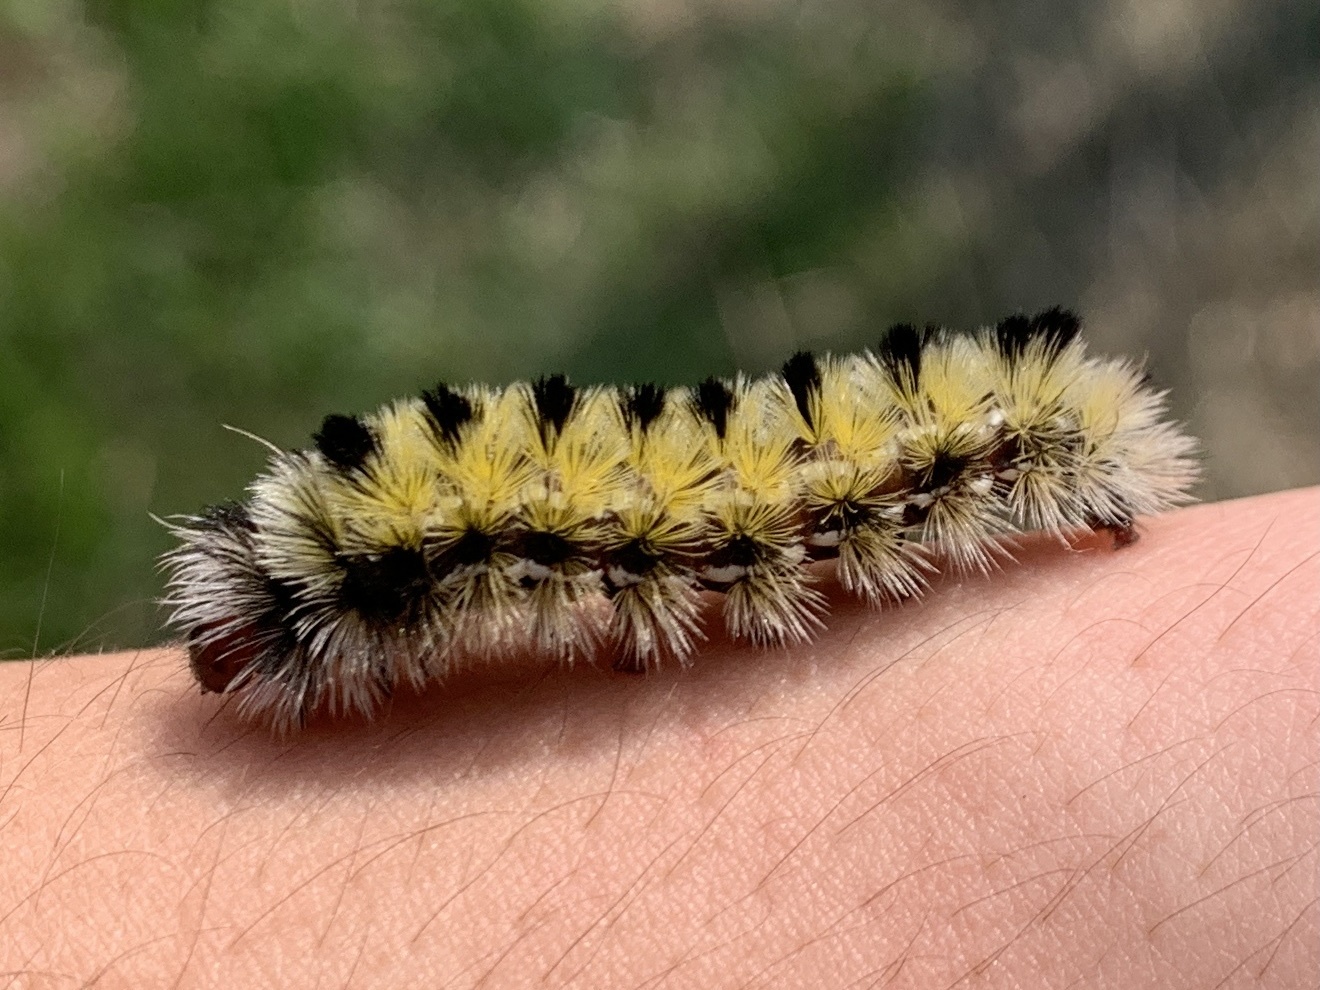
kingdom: Animalia
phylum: Arthropoda
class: Insecta
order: Lepidoptera
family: Erebidae
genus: Ctenucha
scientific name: Ctenucha virginica
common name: Virginia ctenucha moth
